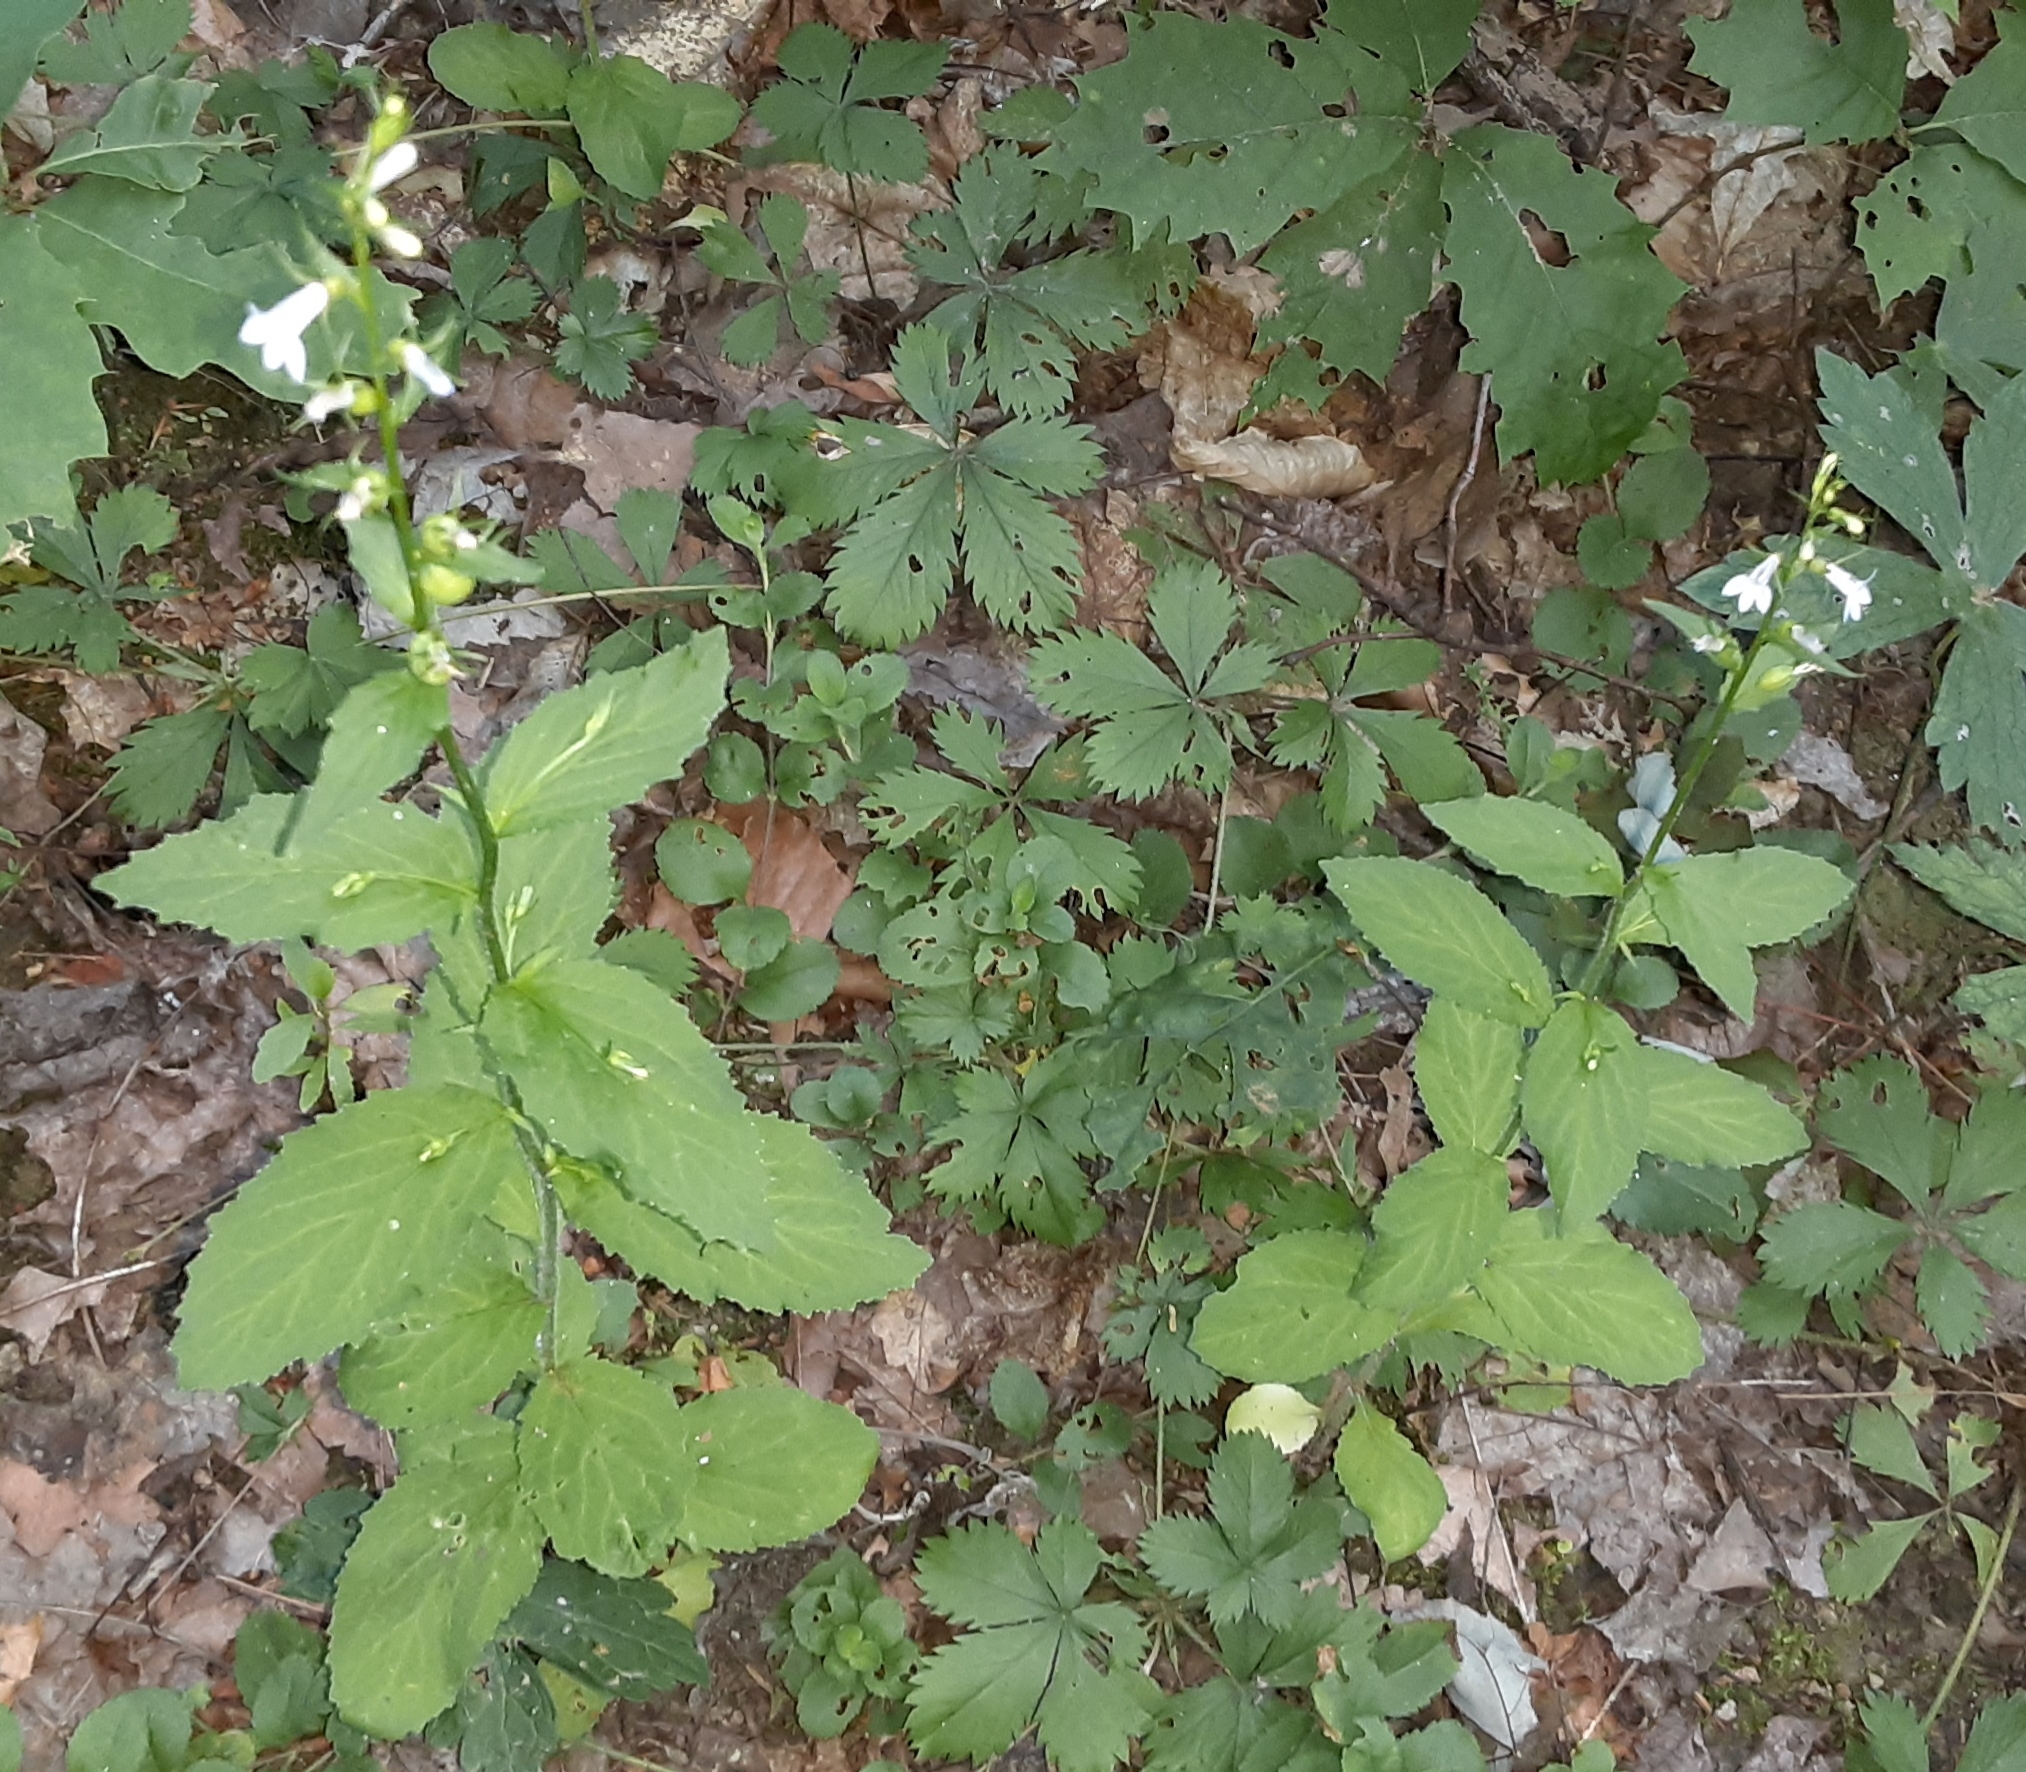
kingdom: Plantae
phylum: Tracheophyta
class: Magnoliopsida
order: Asterales
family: Campanulaceae
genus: Lobelia
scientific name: Lobelia inflata
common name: Indian tobacco
